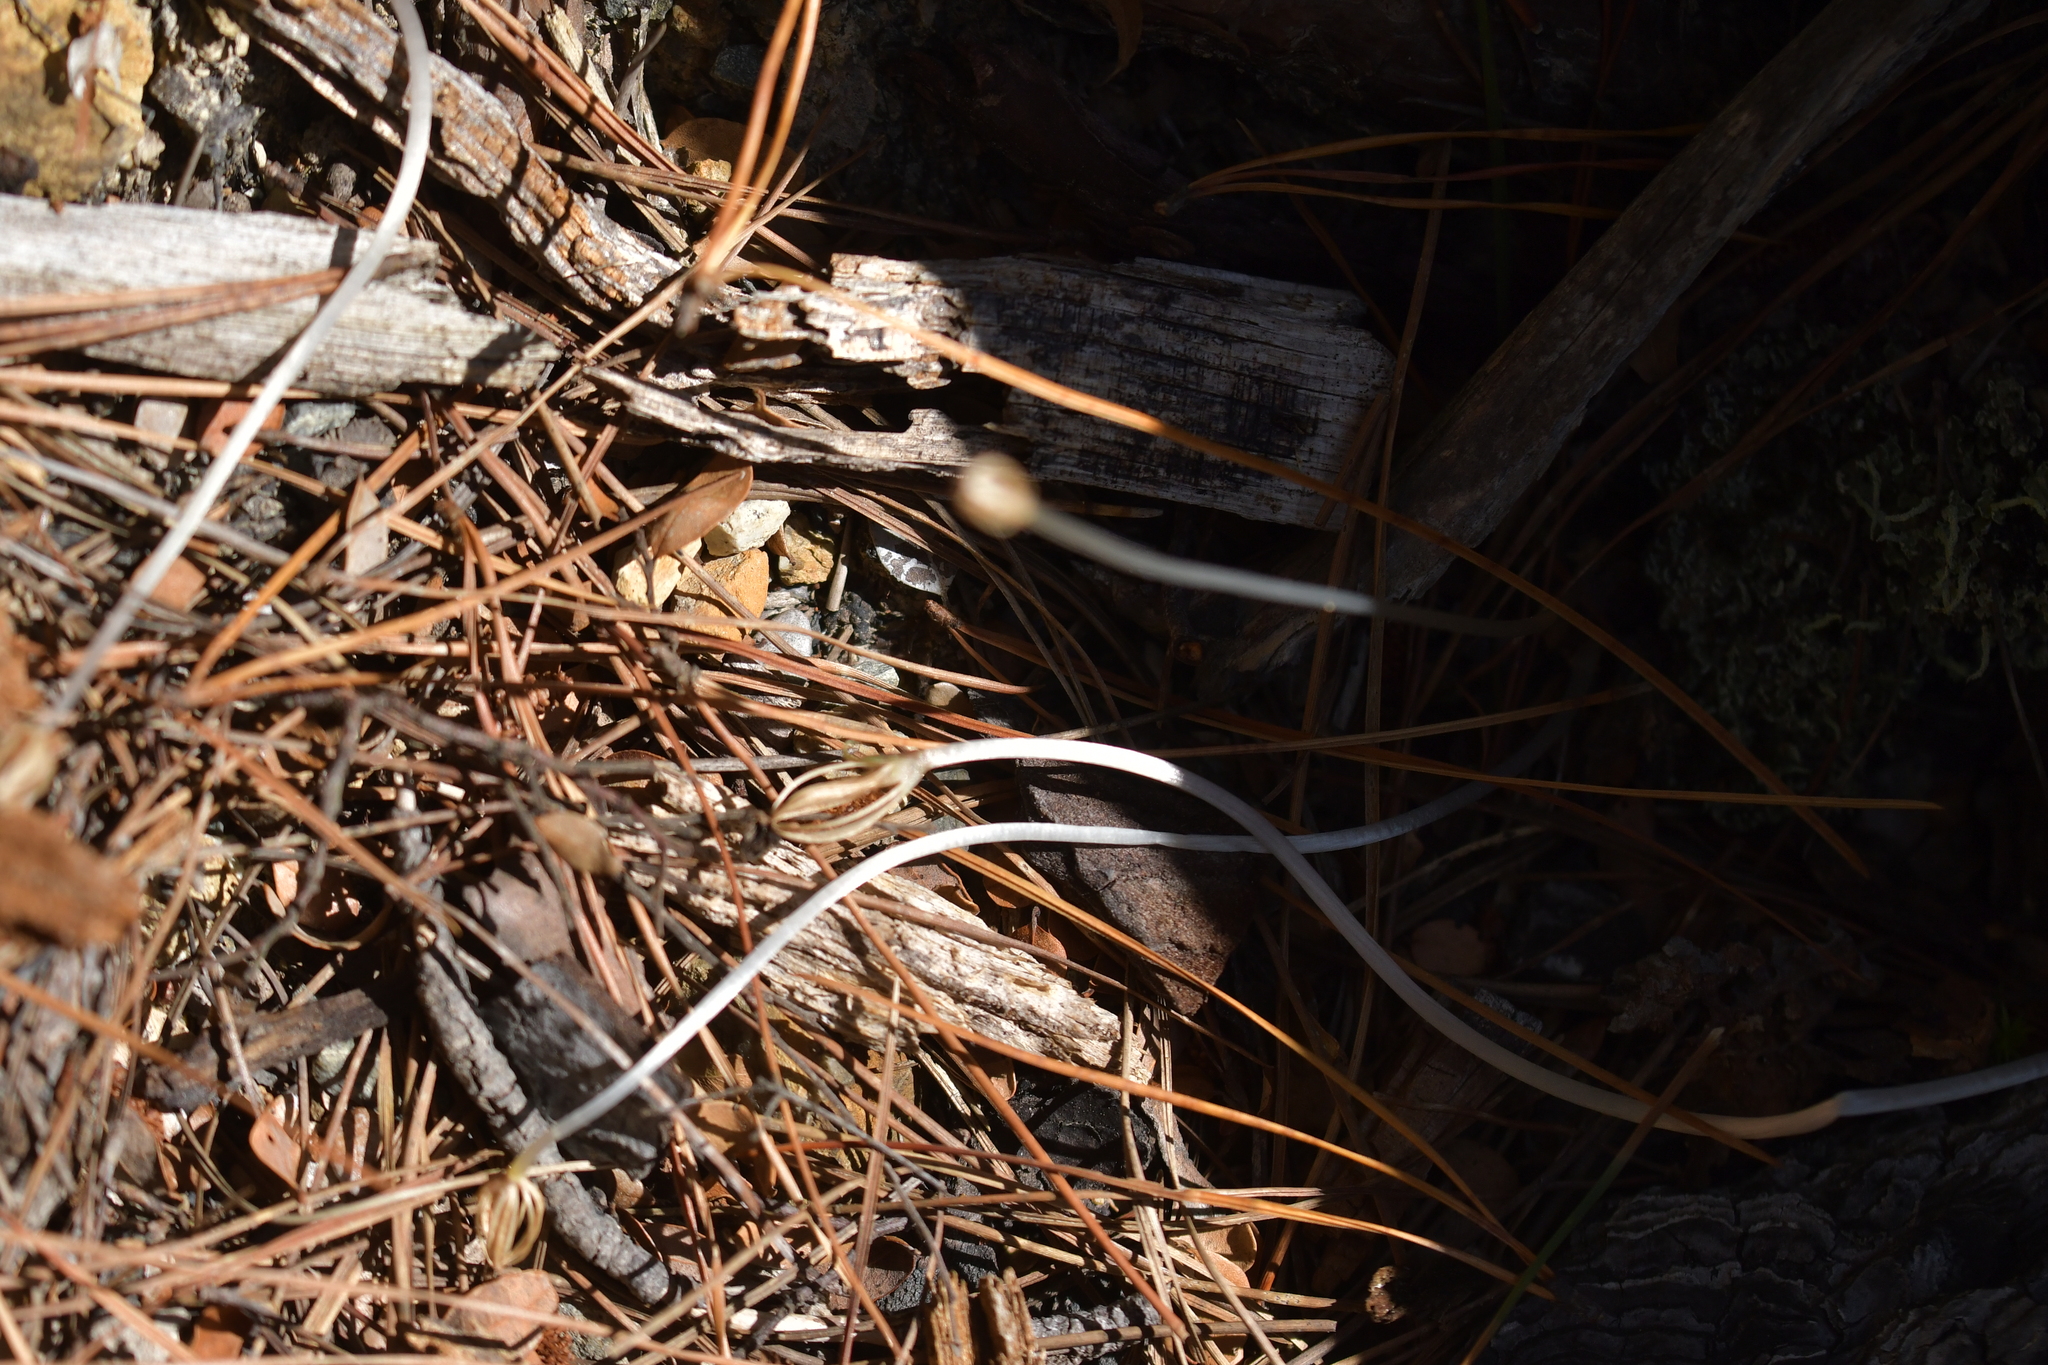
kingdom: Plantae
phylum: Tracheophyta
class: Liliopsida
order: Asparagales
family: Orchidaceae
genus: Corybas
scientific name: Corybas cheesemanii
